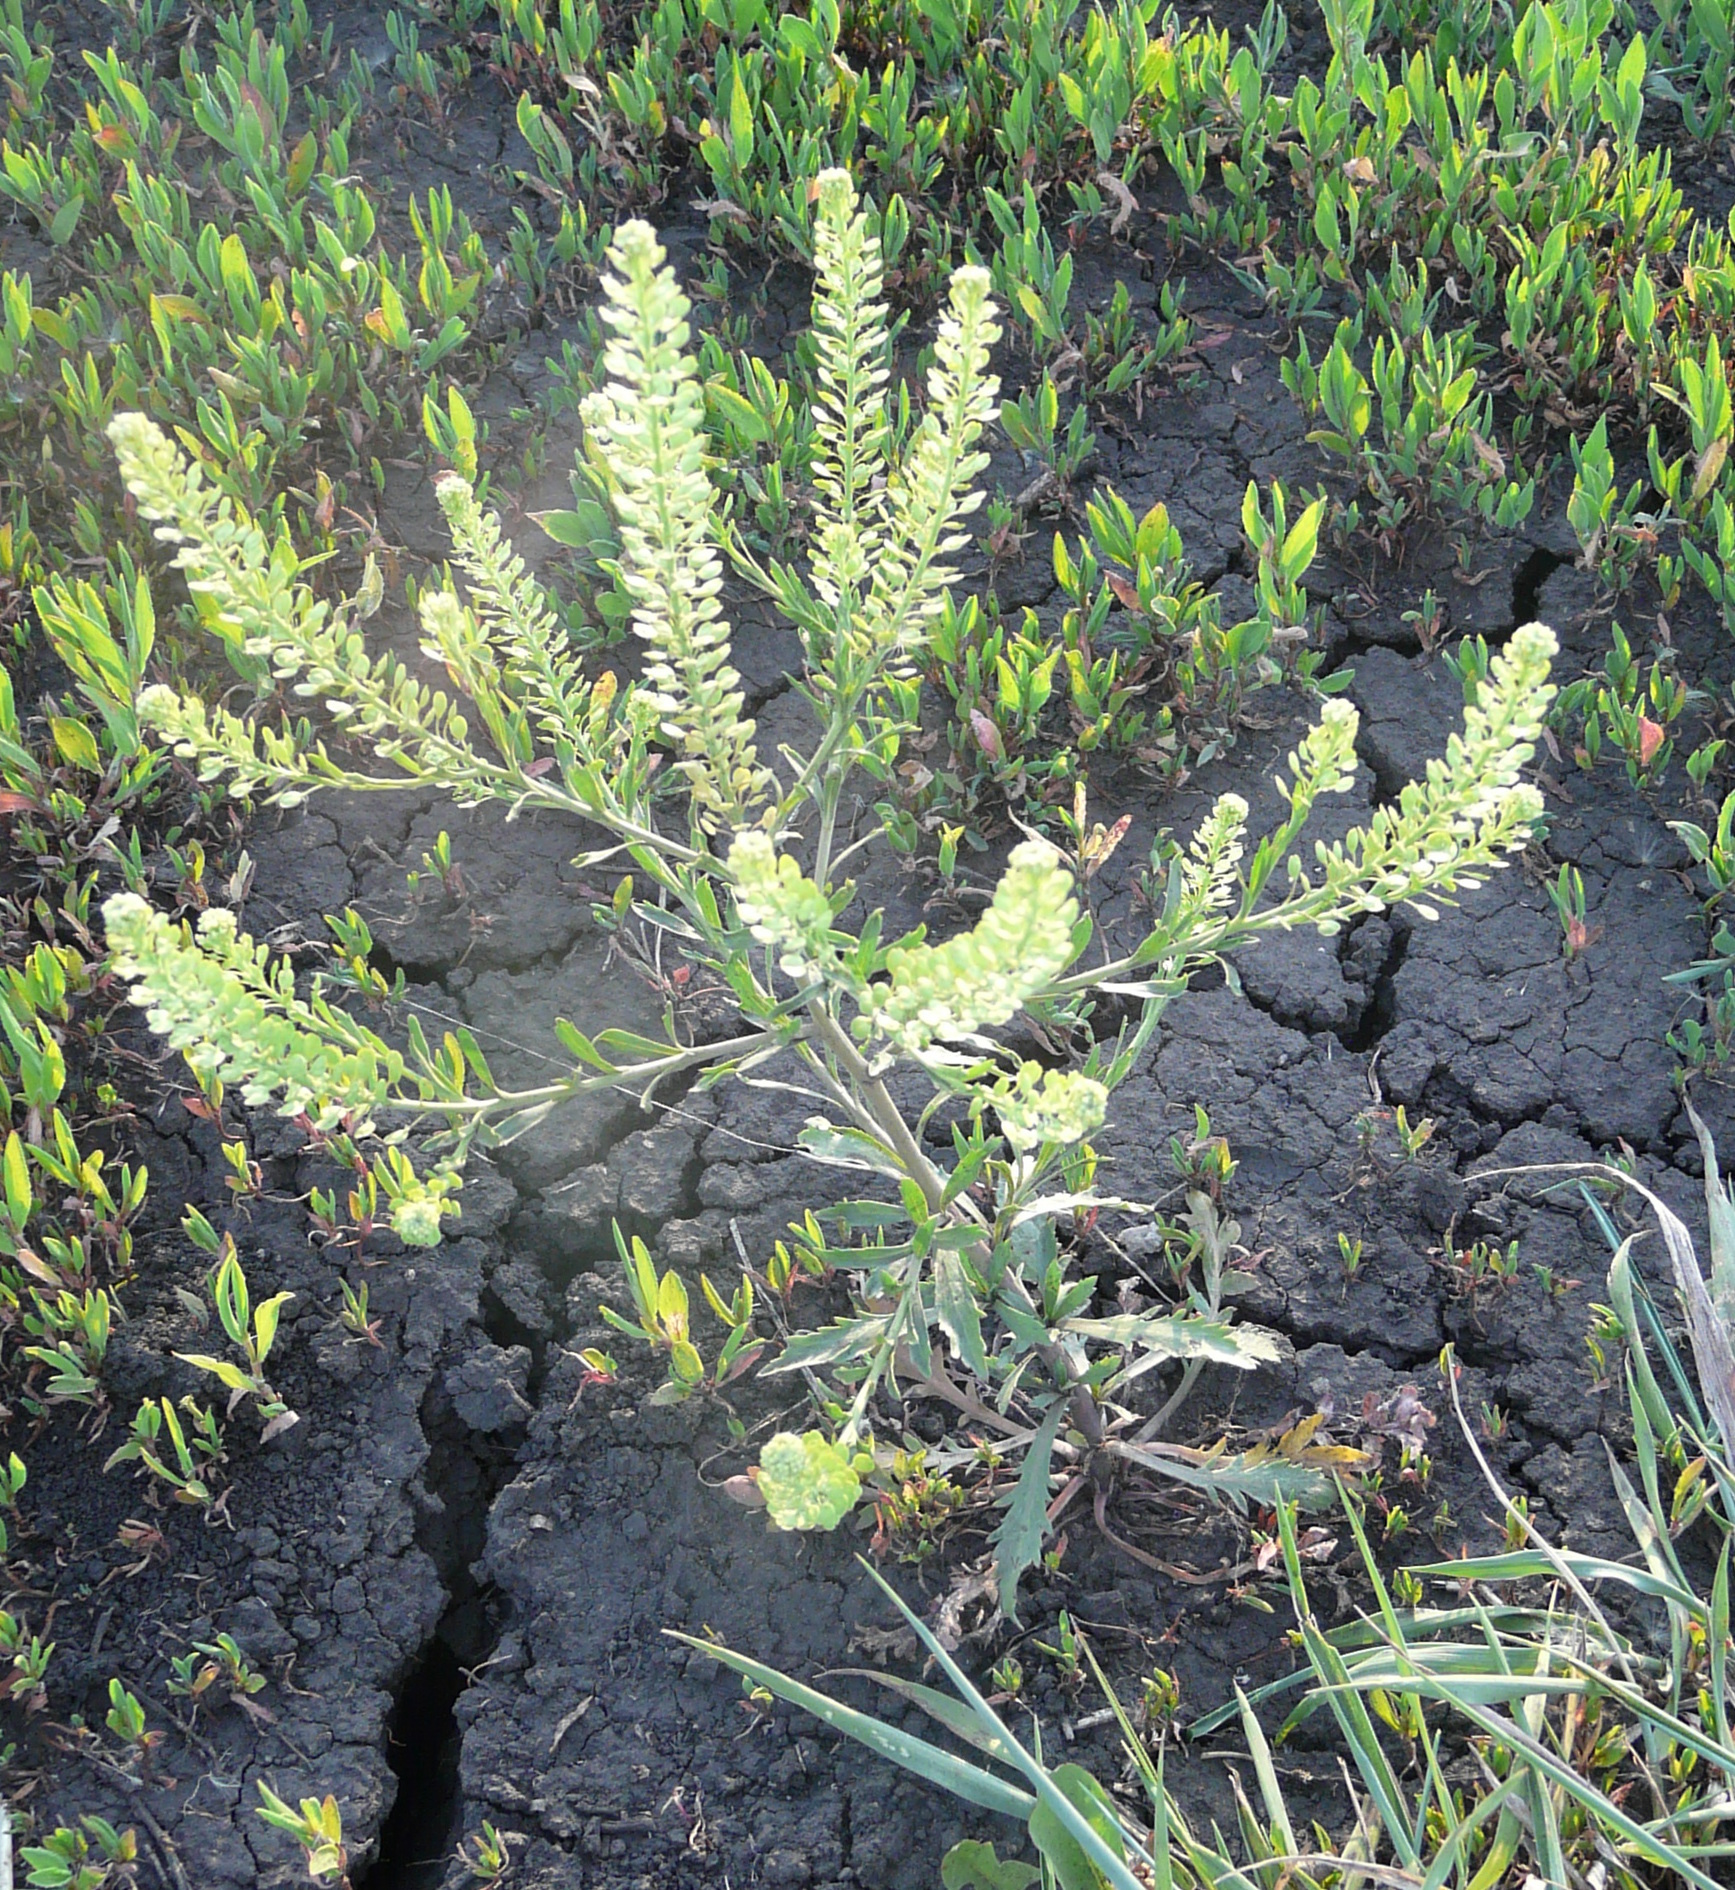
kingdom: Plantae
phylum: Tracheophyta
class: Magnoliopsida
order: Brassicales
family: Brassicaceae
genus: Lepidium
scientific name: Lepidium densiflorum
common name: Miner's pepperwort
